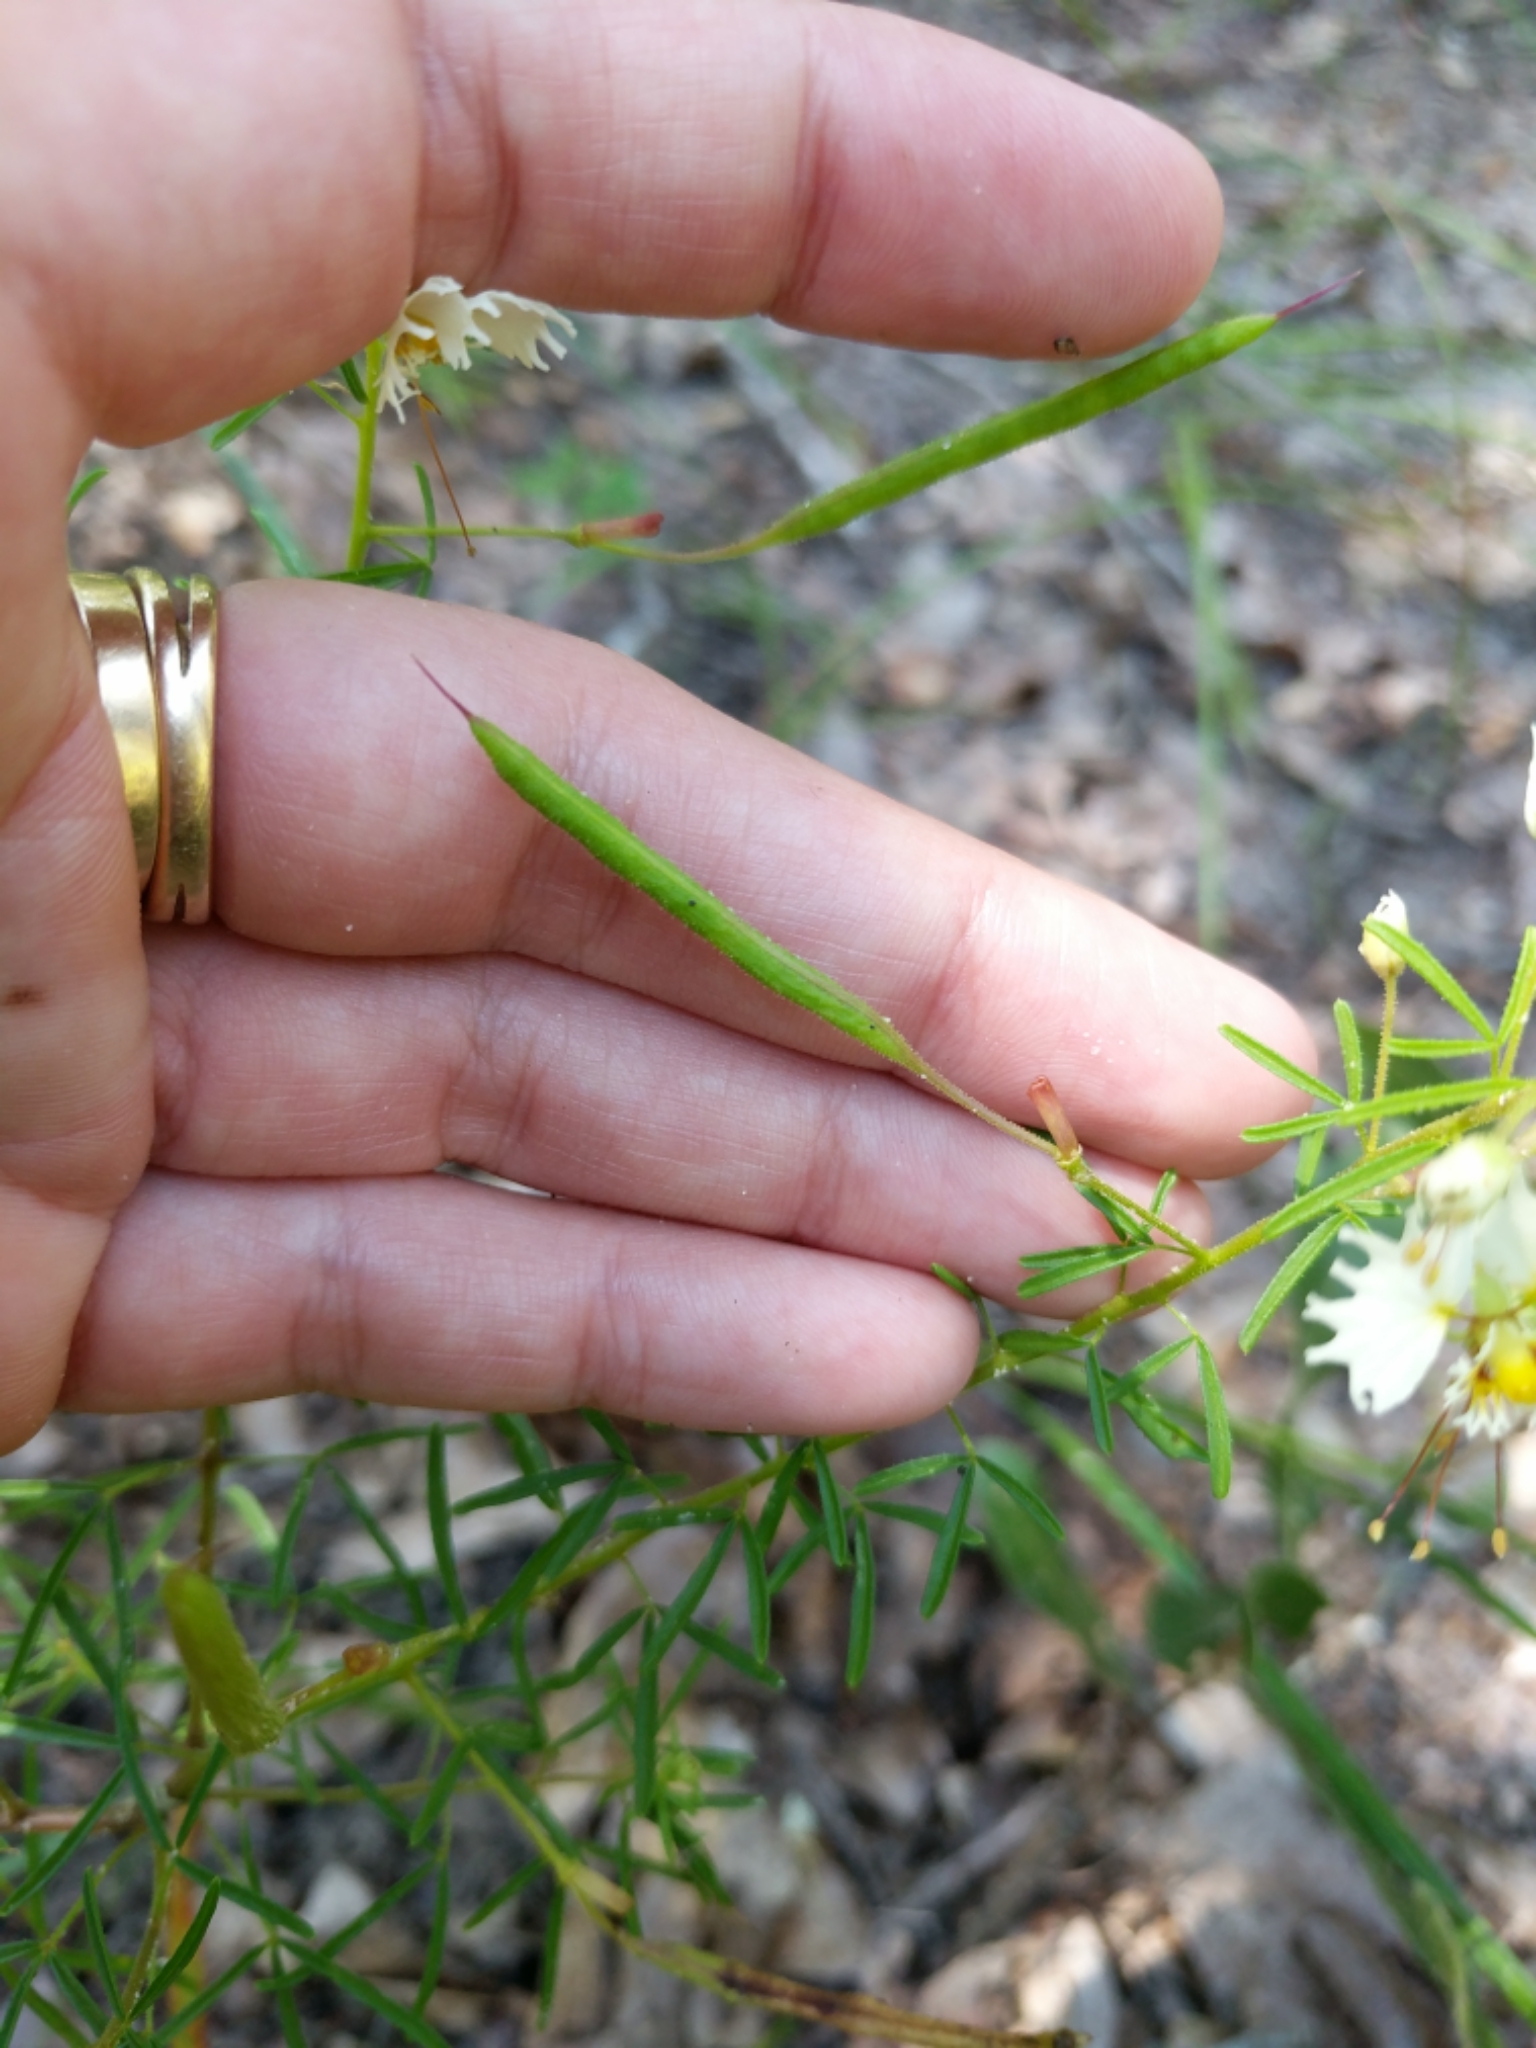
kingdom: Plantae
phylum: Tracheophyta
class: Magnoliopsida
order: Brassicales
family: Cleomaceae
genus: Polanisia
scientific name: Polanisia erosa
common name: Large clammyweed
